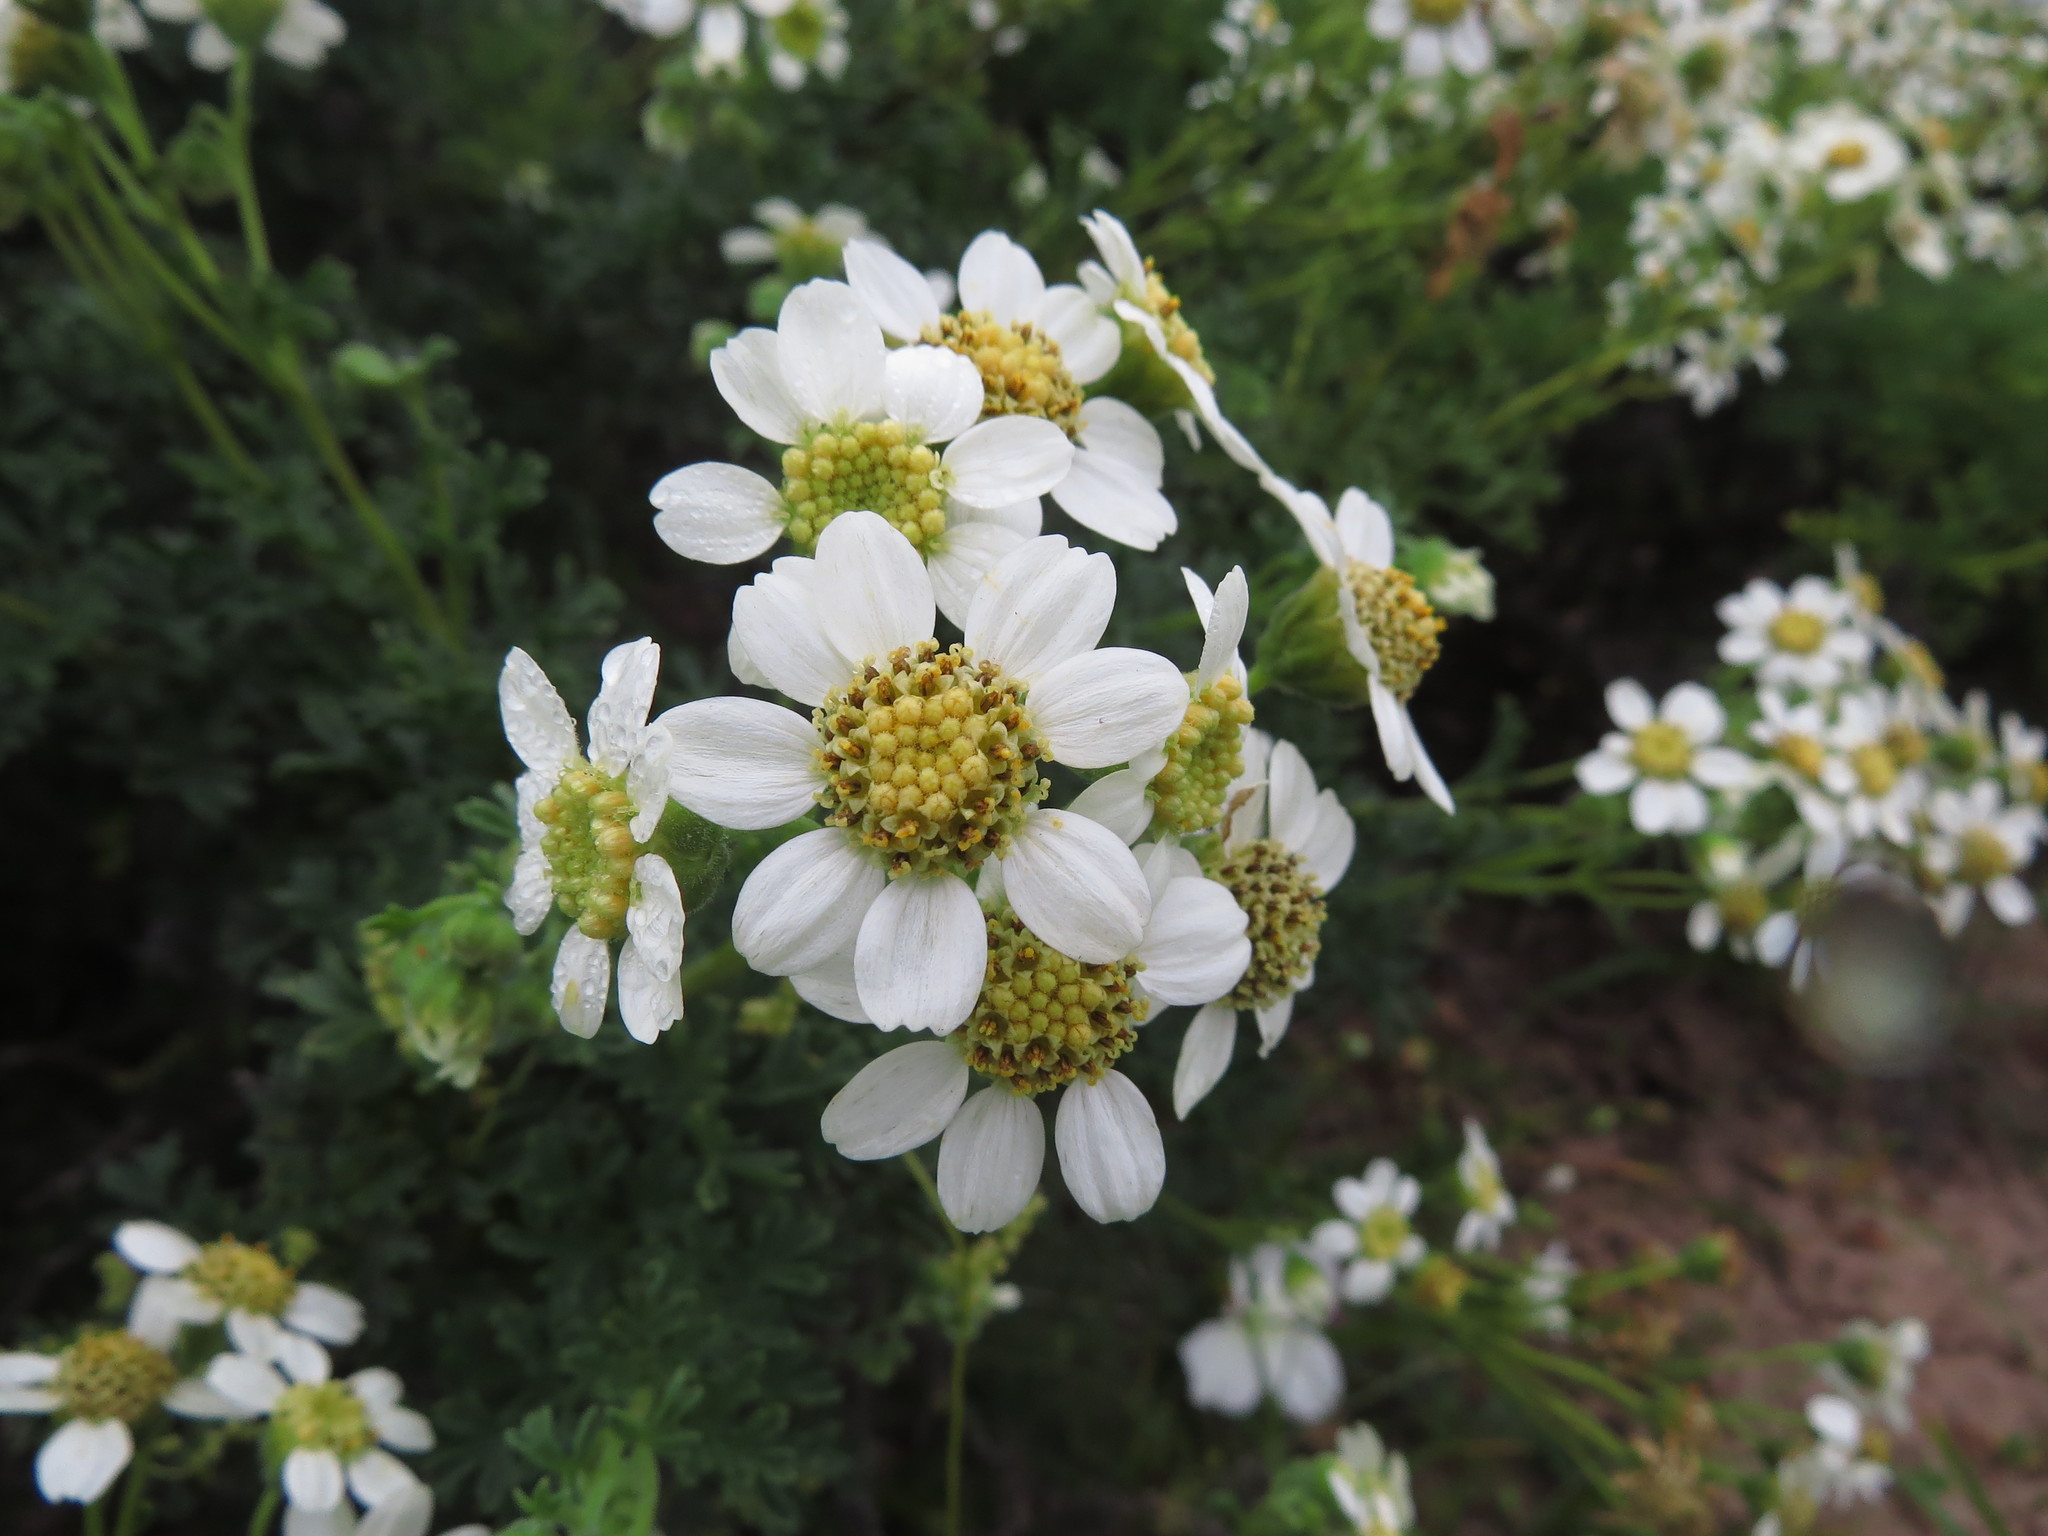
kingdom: Plantae
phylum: Tracheophyta
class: Magnoliopsida
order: Asterales
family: Asteraceae
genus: Bahia
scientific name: Bahia ambrosioides
